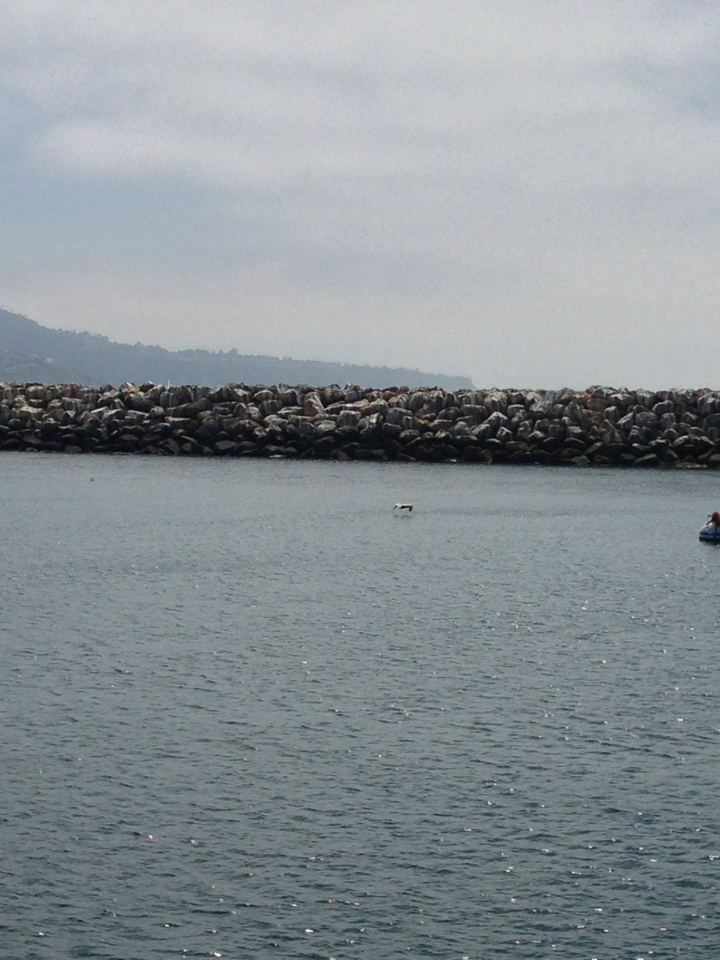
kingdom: Animalia
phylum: Chordata
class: Aves
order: Pelecaniformes
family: Pelecanidae
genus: Pelecanus
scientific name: Pelecanus occidentalis
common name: Brown pelican
